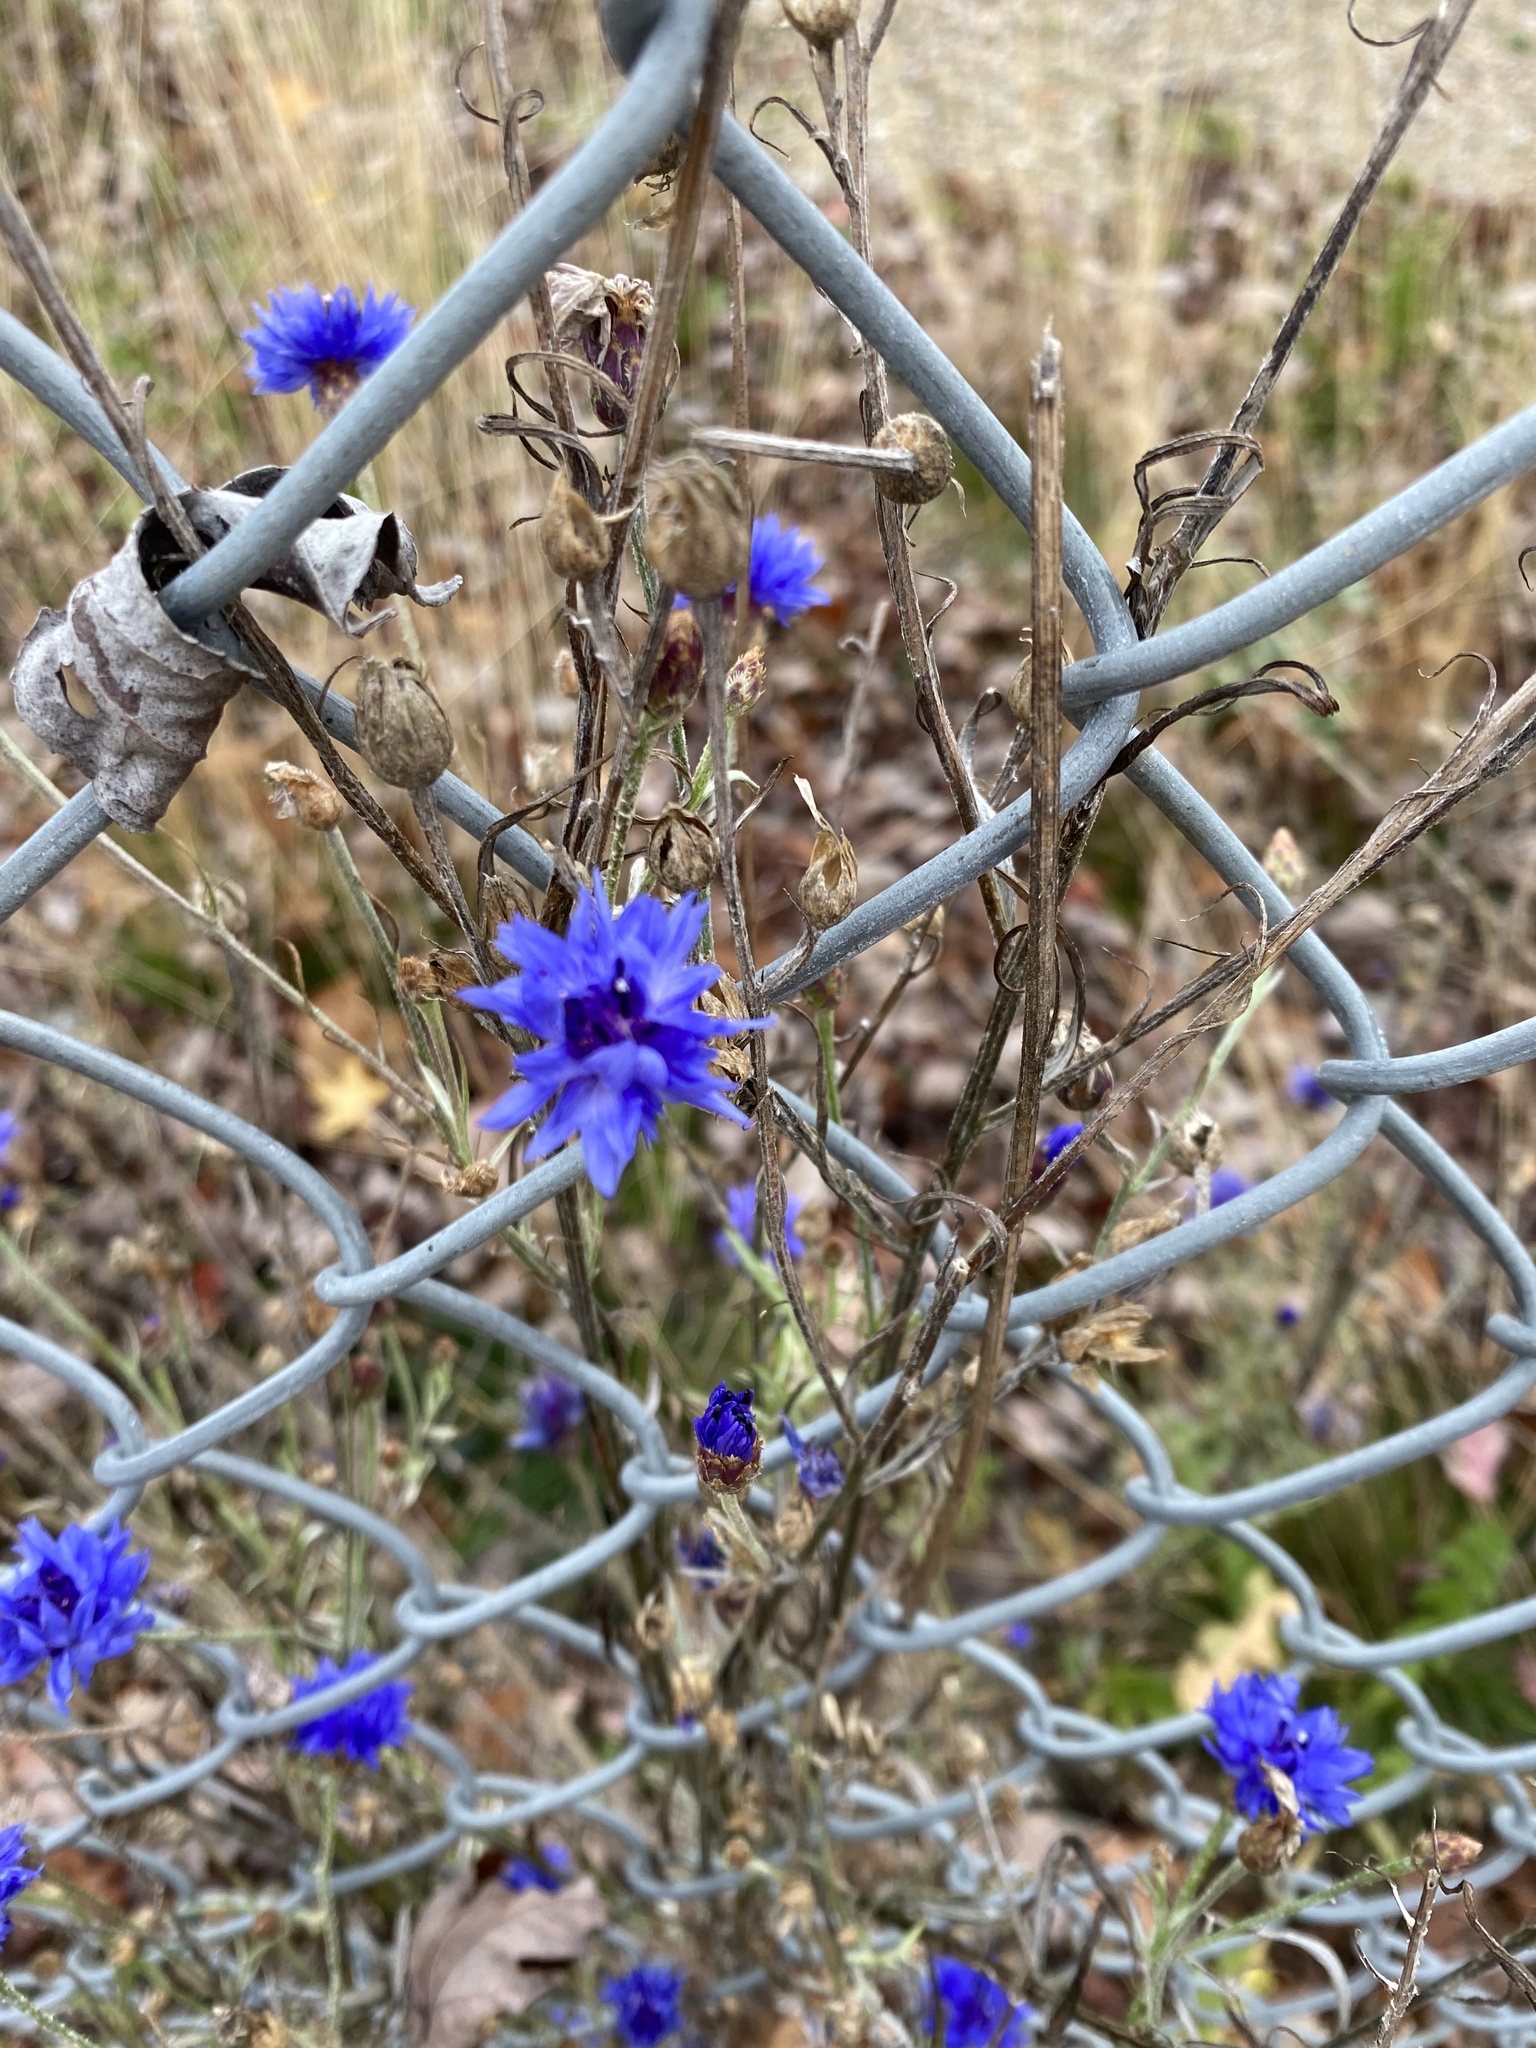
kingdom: Plantae
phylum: Tracheophyta
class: Magnoliopsida
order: Asterales
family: Asteraceae
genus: Centaurea
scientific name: Centaurea cyanus
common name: Cornflower
